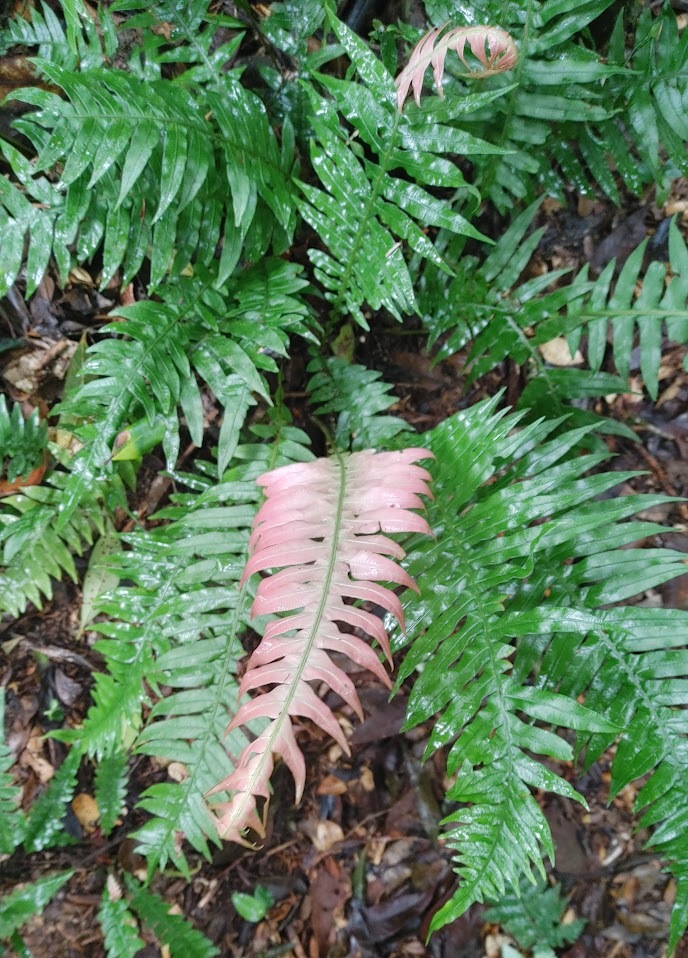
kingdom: Plantae
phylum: Tracheophyta
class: Polypodiopsida
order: Polypodiales
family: Blechnaceae
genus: Neoblechnum
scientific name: Neoblechnum brasiliense
